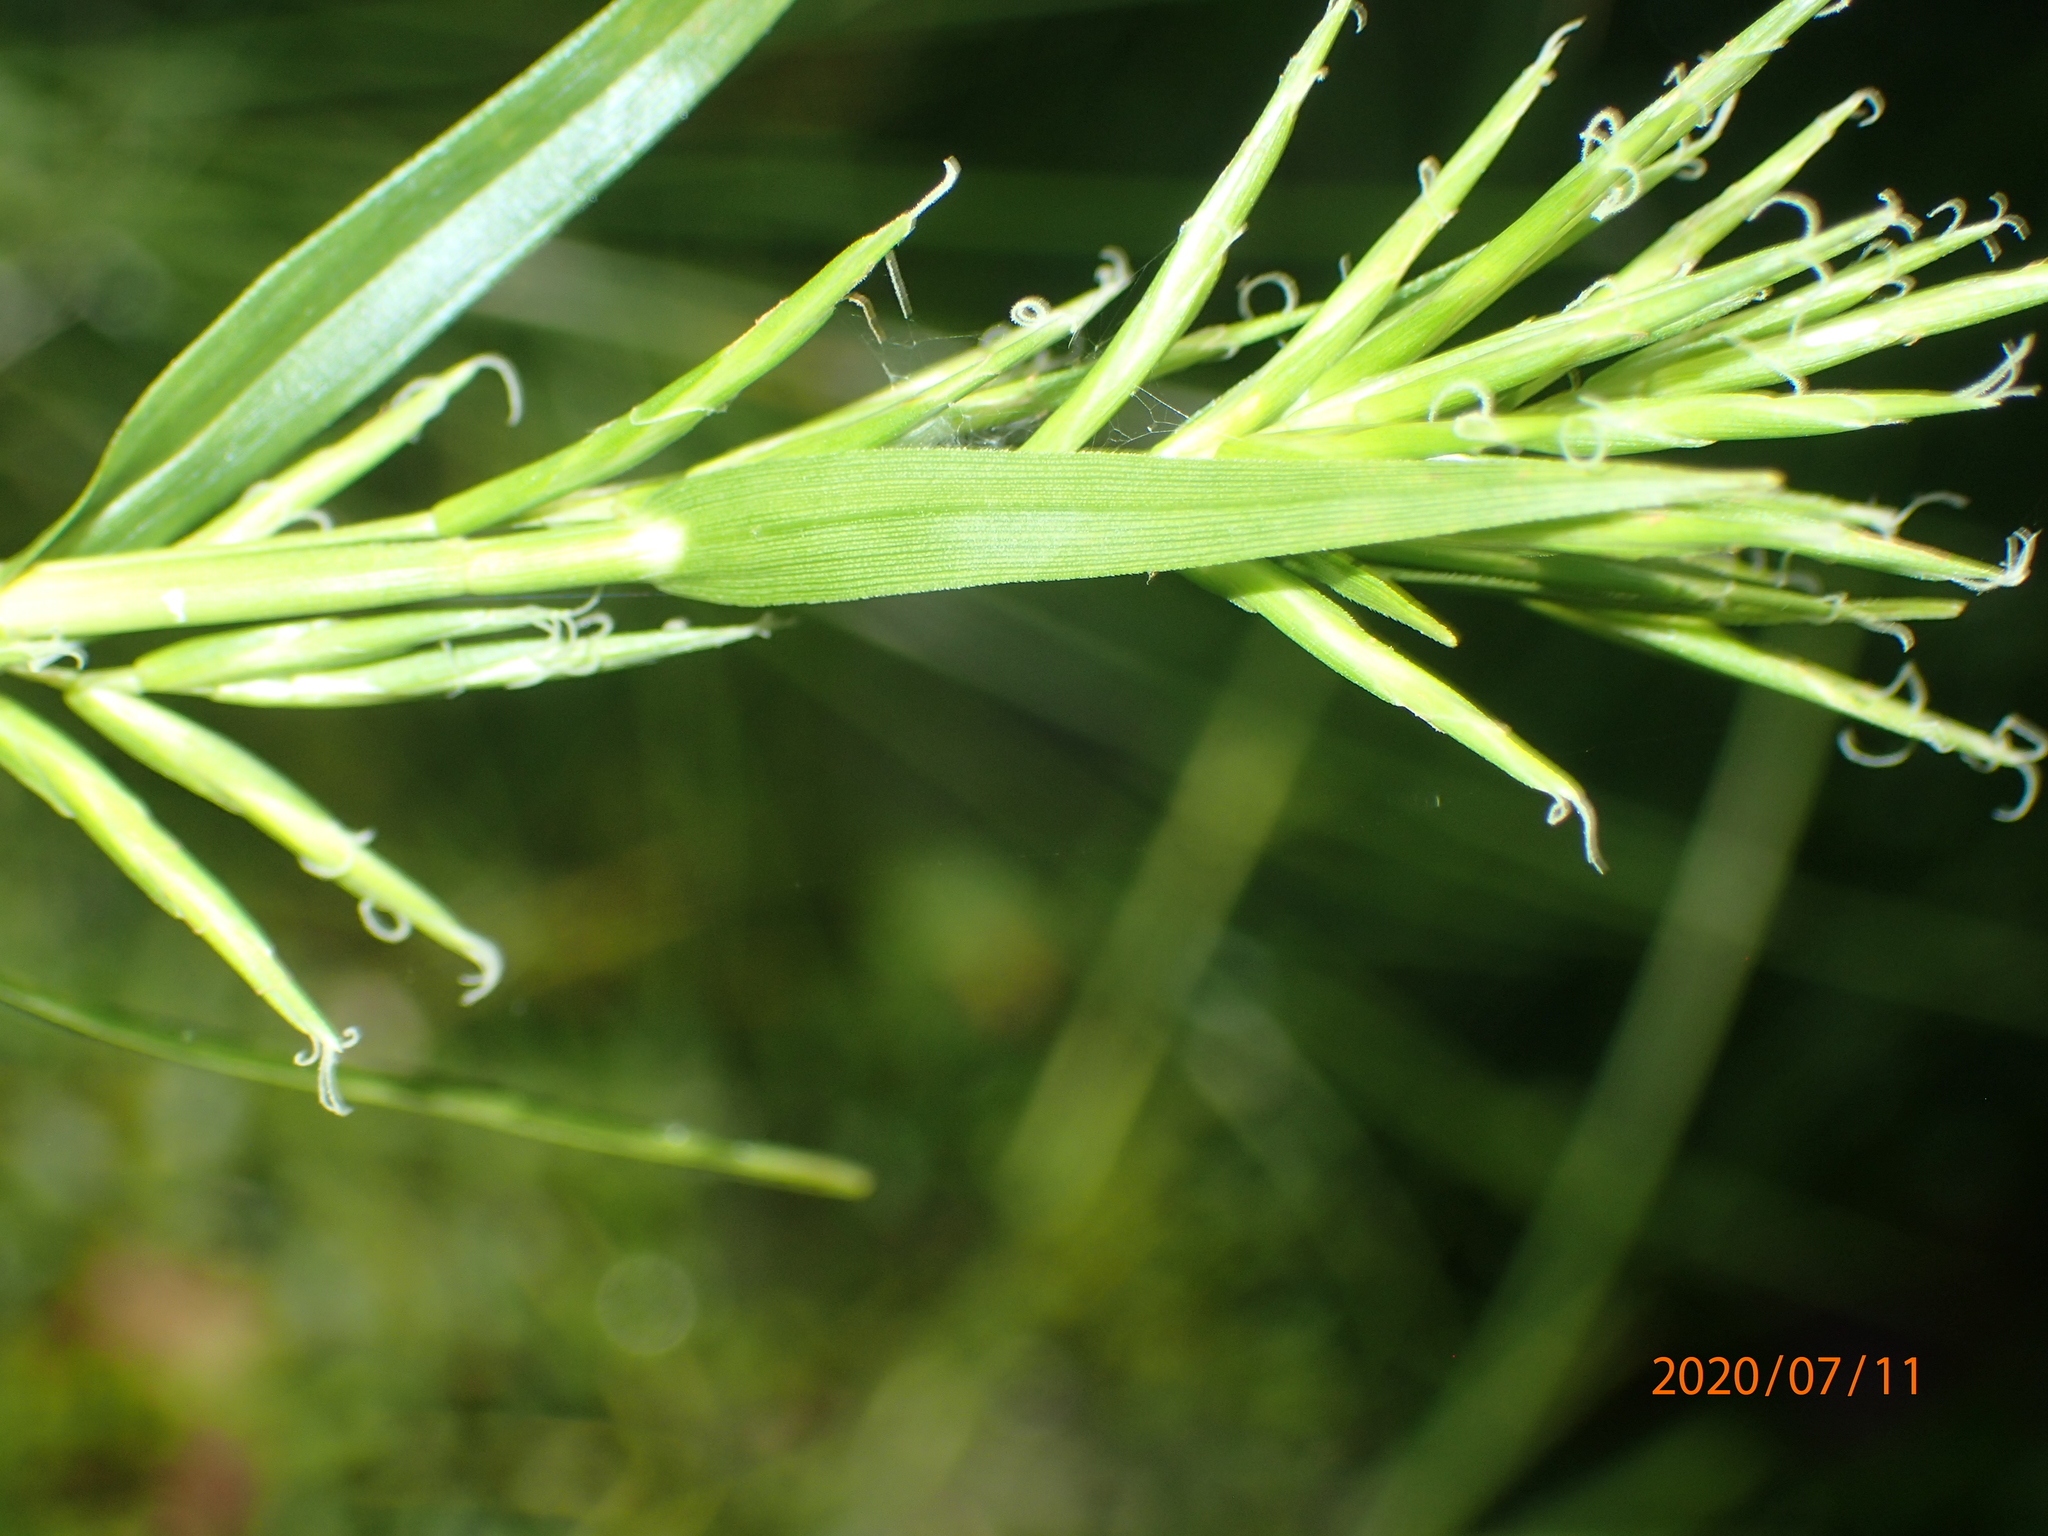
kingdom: Plantae
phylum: Tracheophyta
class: Liliopsida
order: Poales
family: Cyperaceae
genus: Dulichium
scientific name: Dulichium arundinaceum
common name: Three-way sedge
